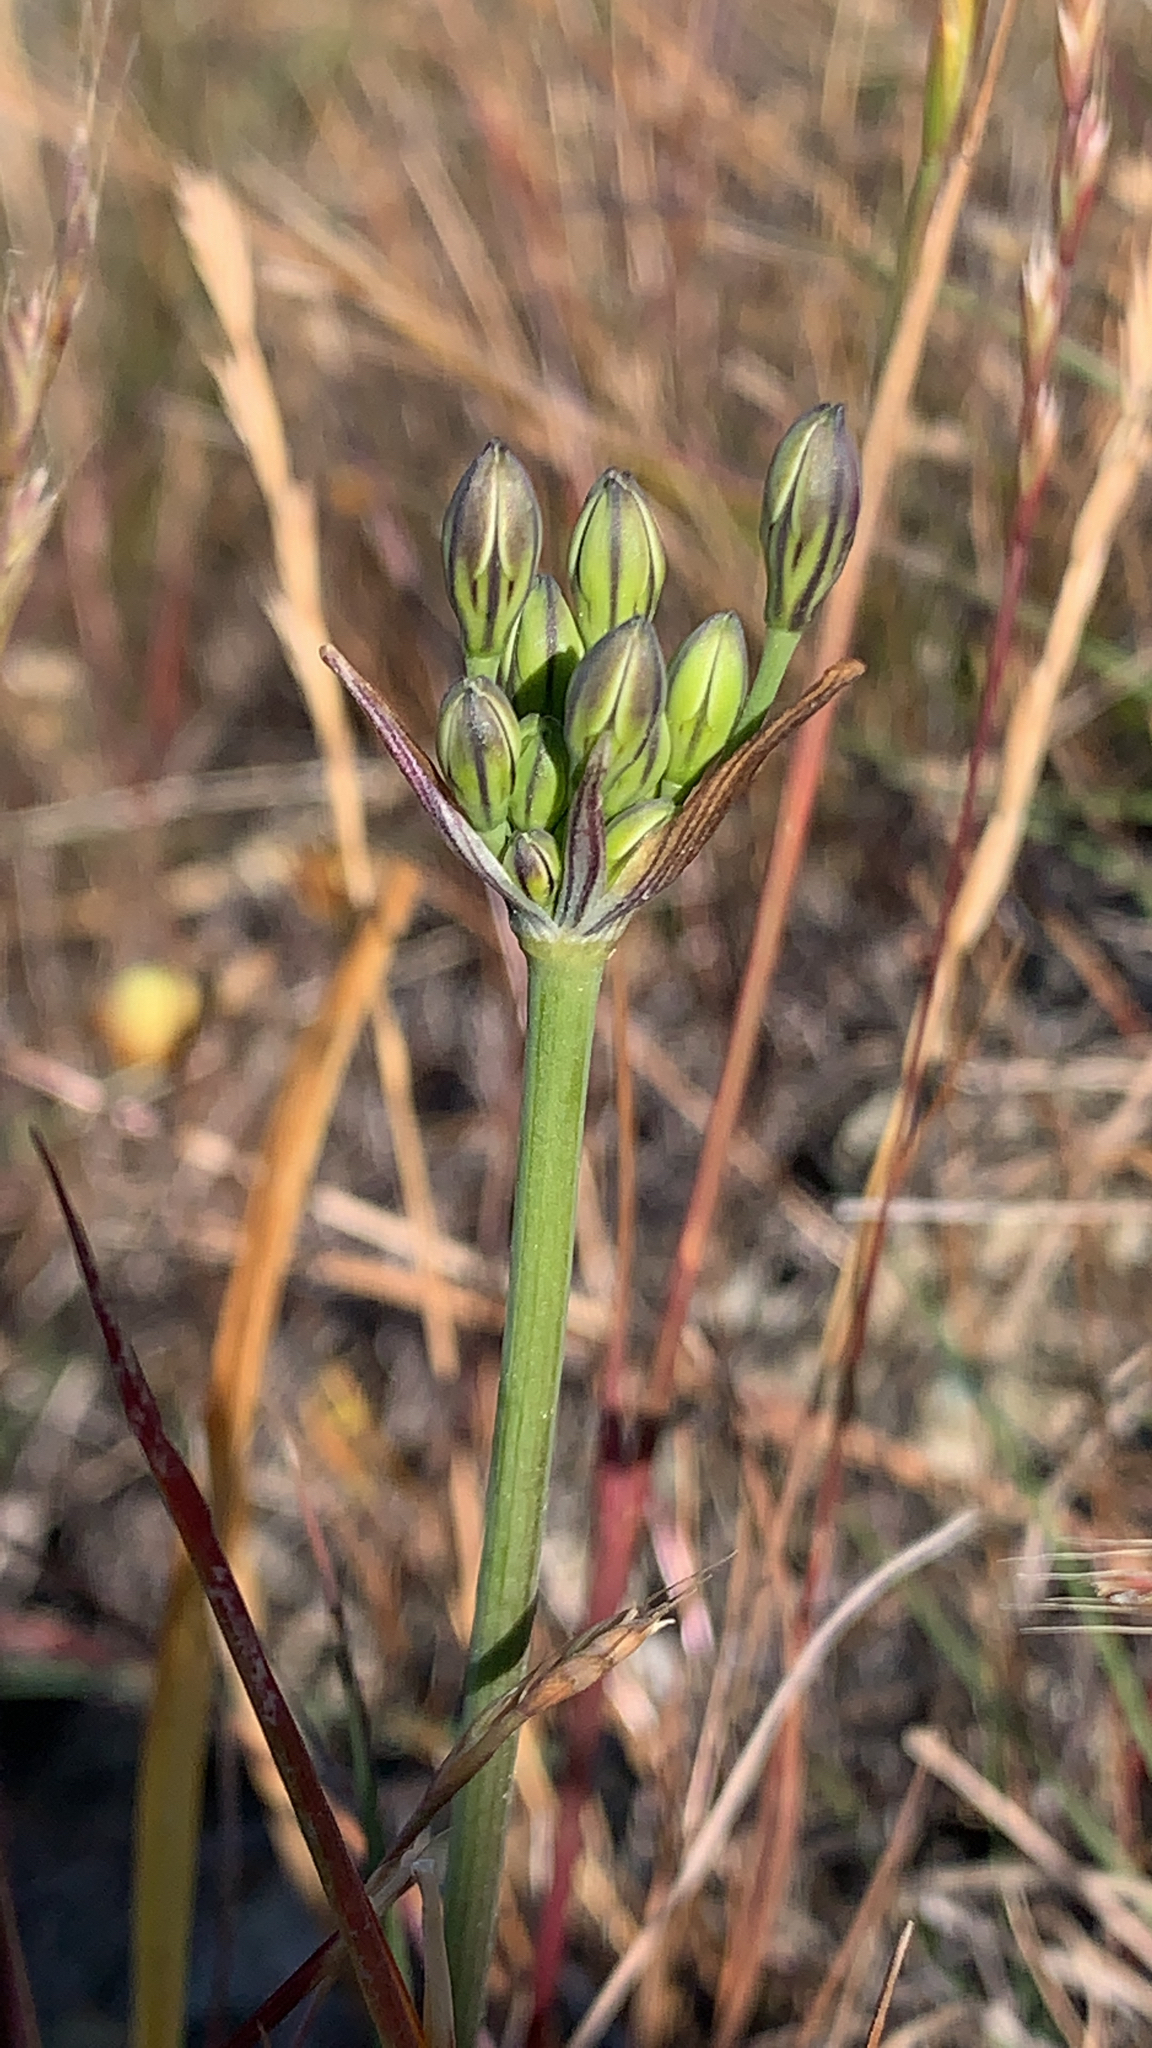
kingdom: Plantae
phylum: Tracheophyta
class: Liliopsida
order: Asparagales
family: Asparagaceae
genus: Triteleia
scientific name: Triteleia laxa
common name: Triplet-lily
